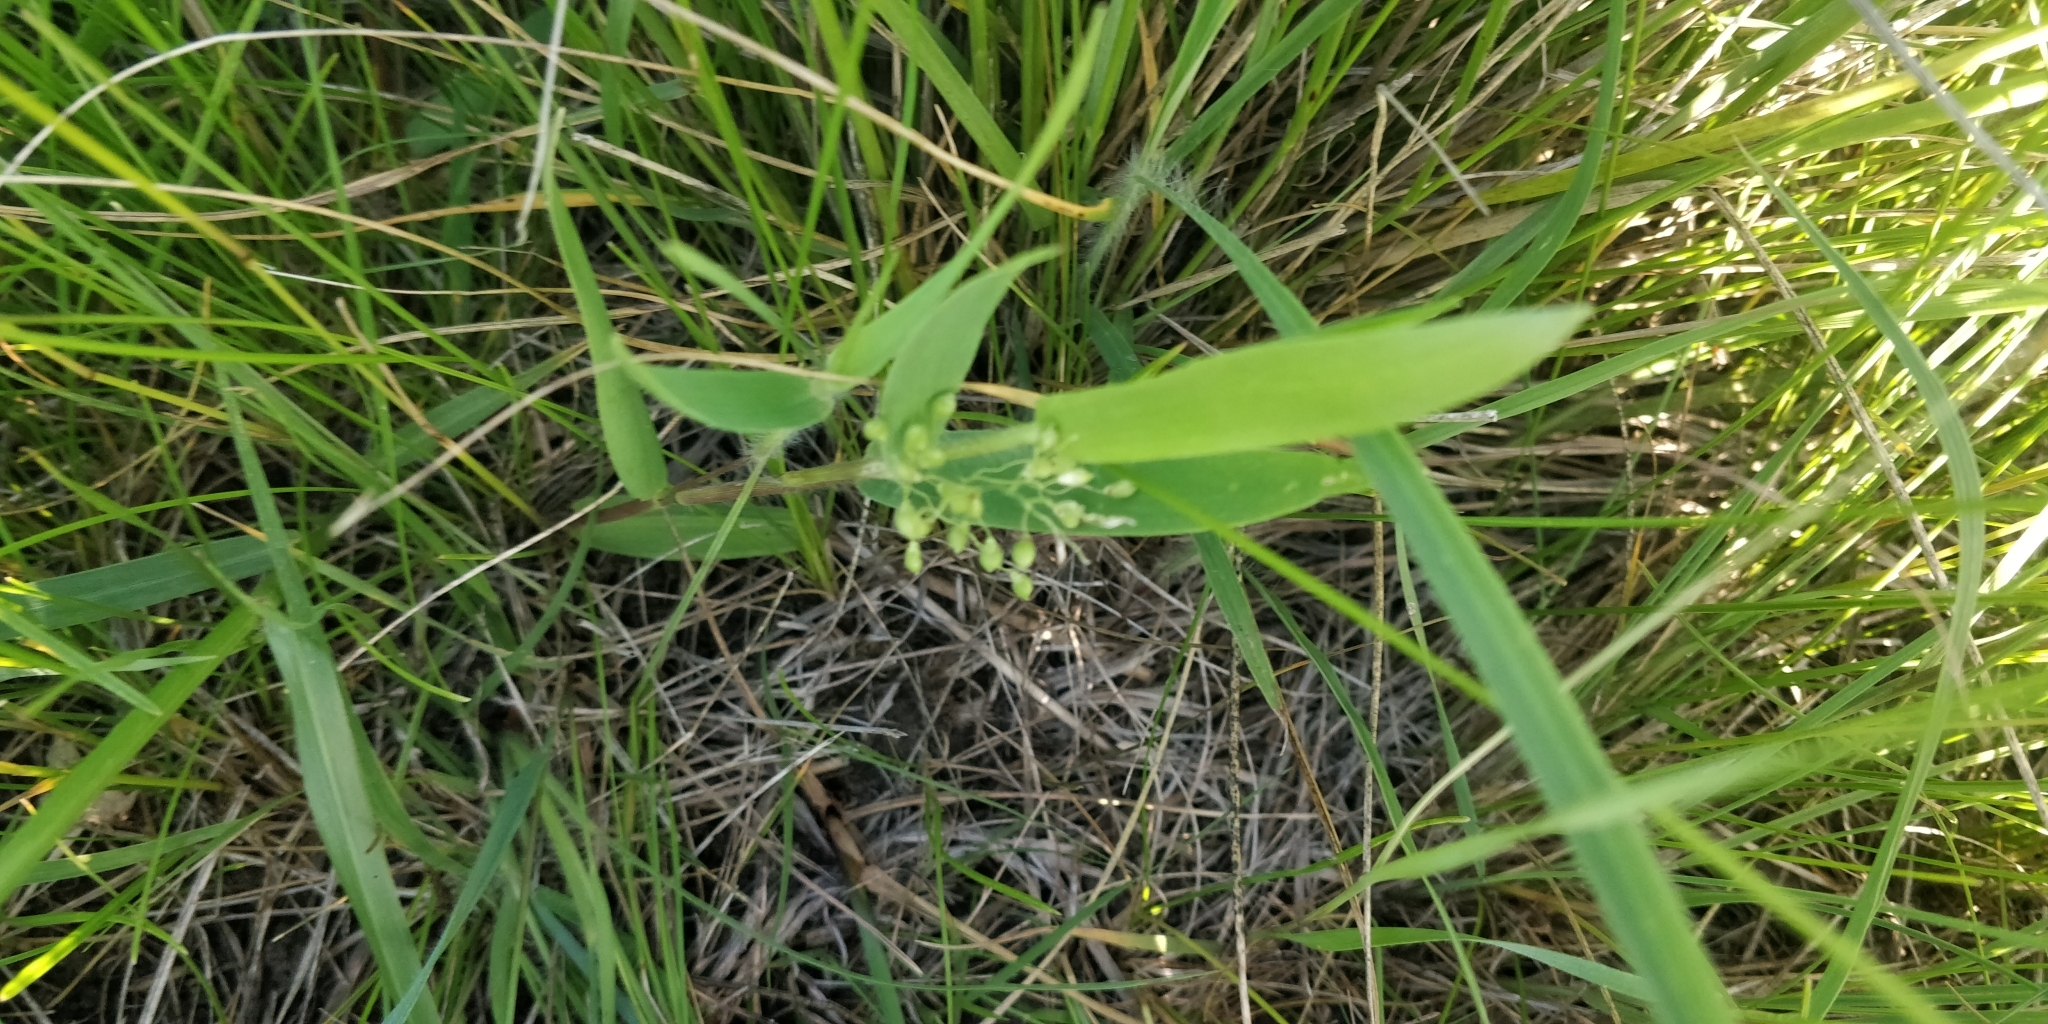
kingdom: Plantae
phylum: Tracheophyta
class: Liliopsida
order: Poales
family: Poaceae
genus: Dichanthelium
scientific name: Dichanthelium oligosanthes
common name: Few-anther obscuregrass
